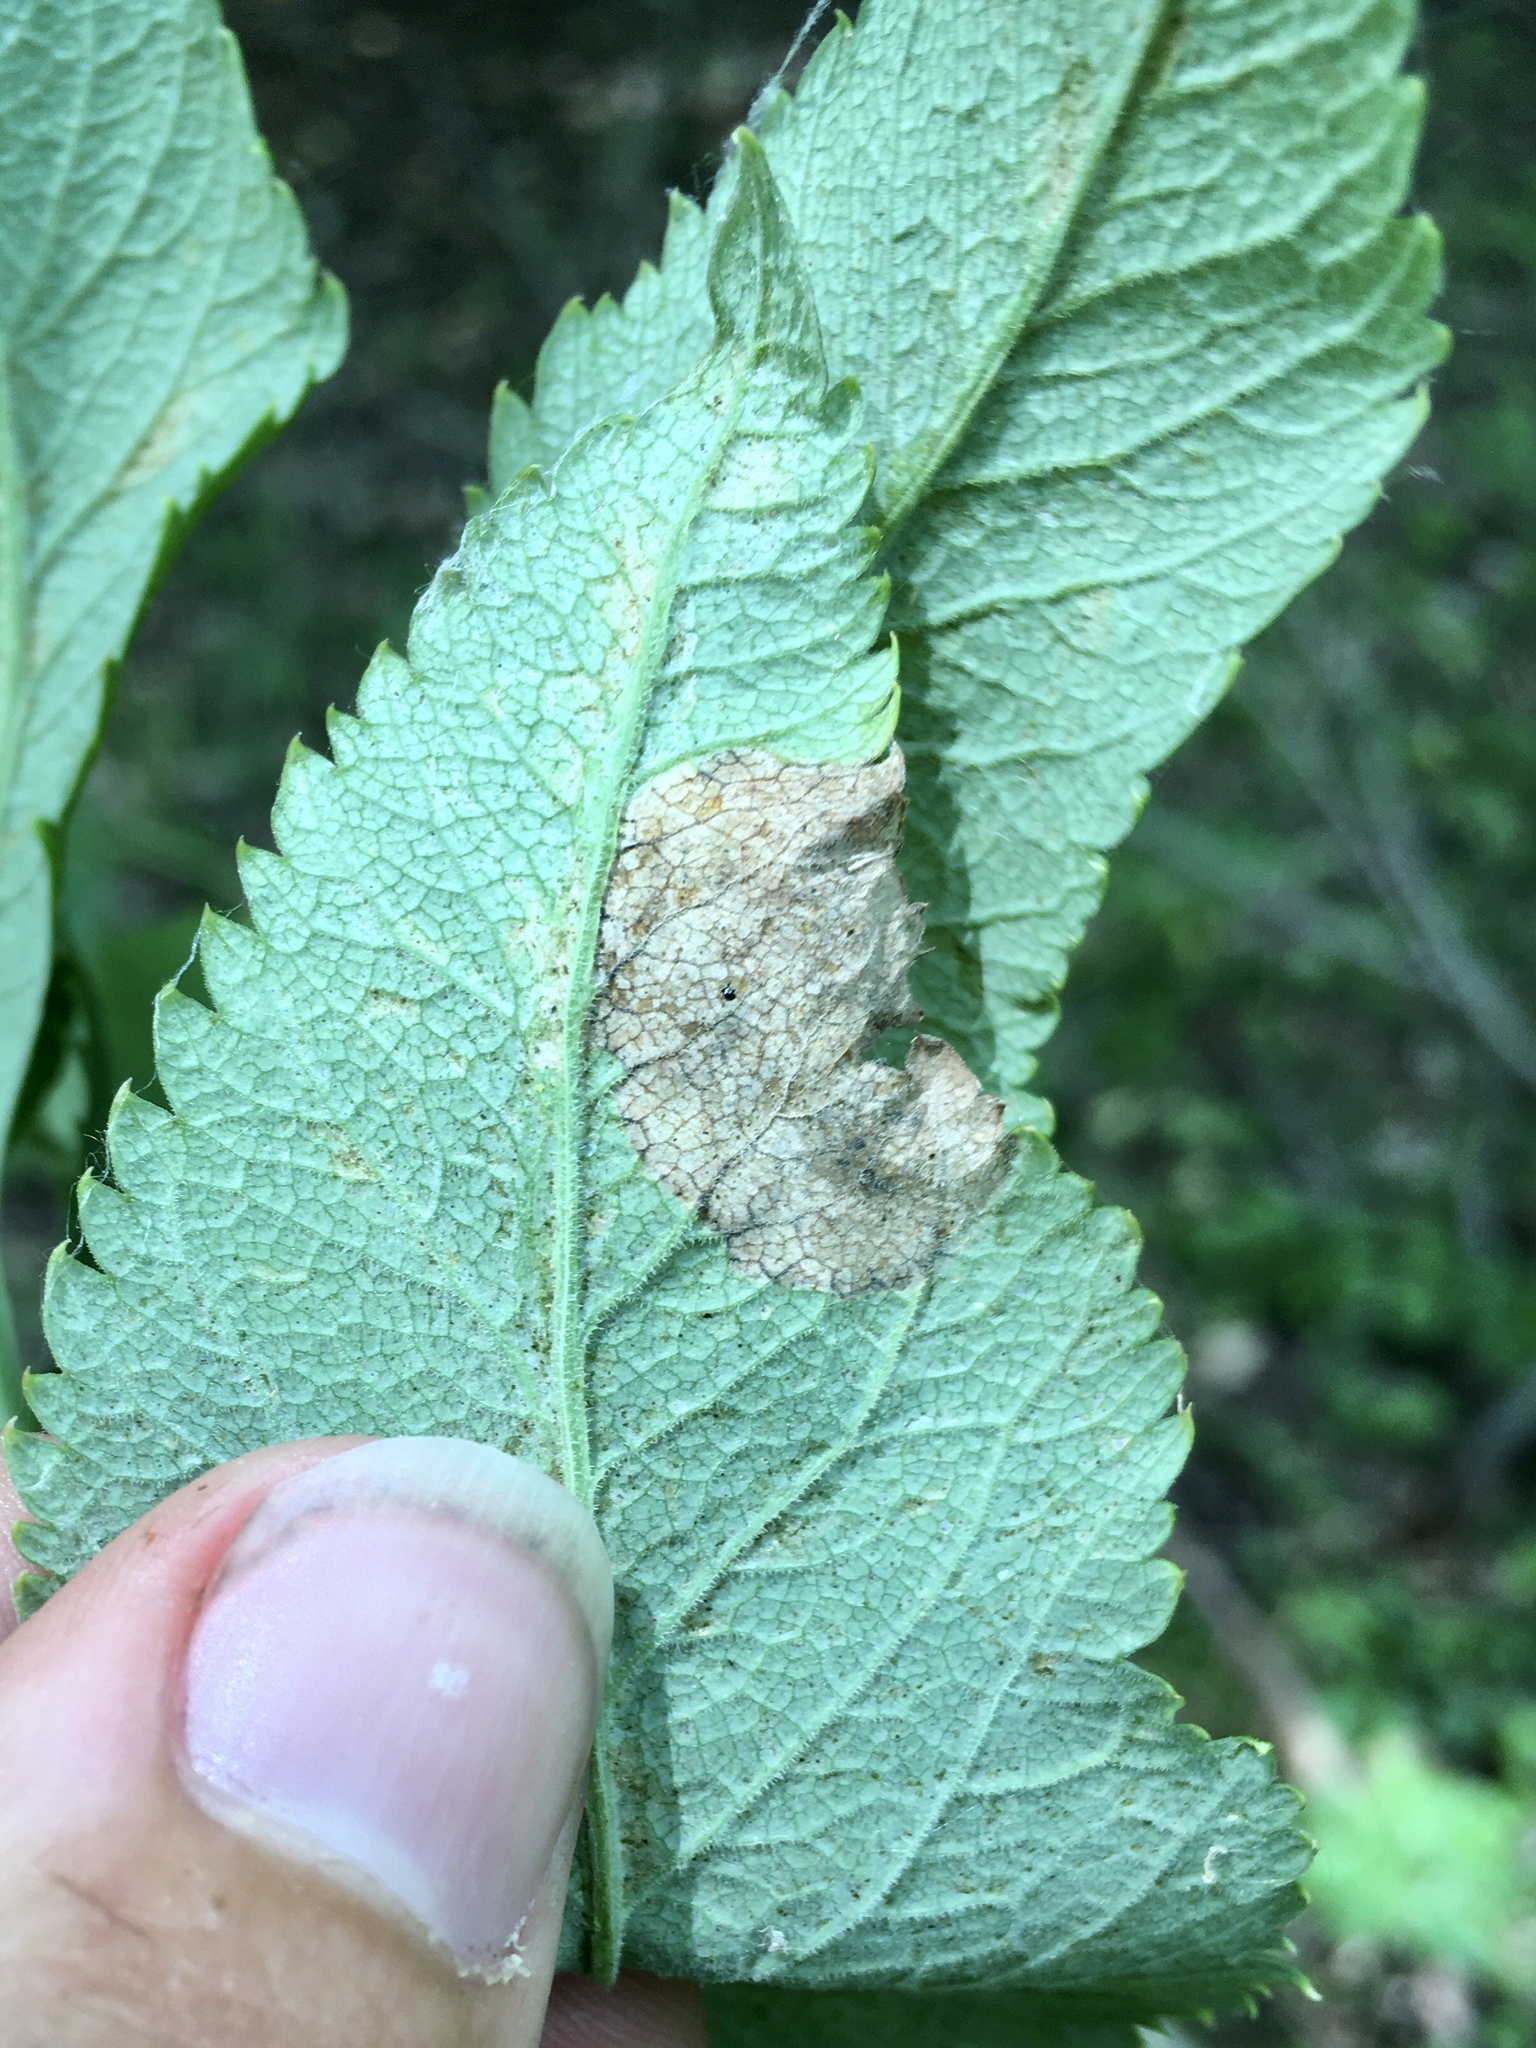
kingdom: Animalia
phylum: Arthropoda
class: Insecta
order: Diptera
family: Tephritidae
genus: Euleia
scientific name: Euleia fratria
